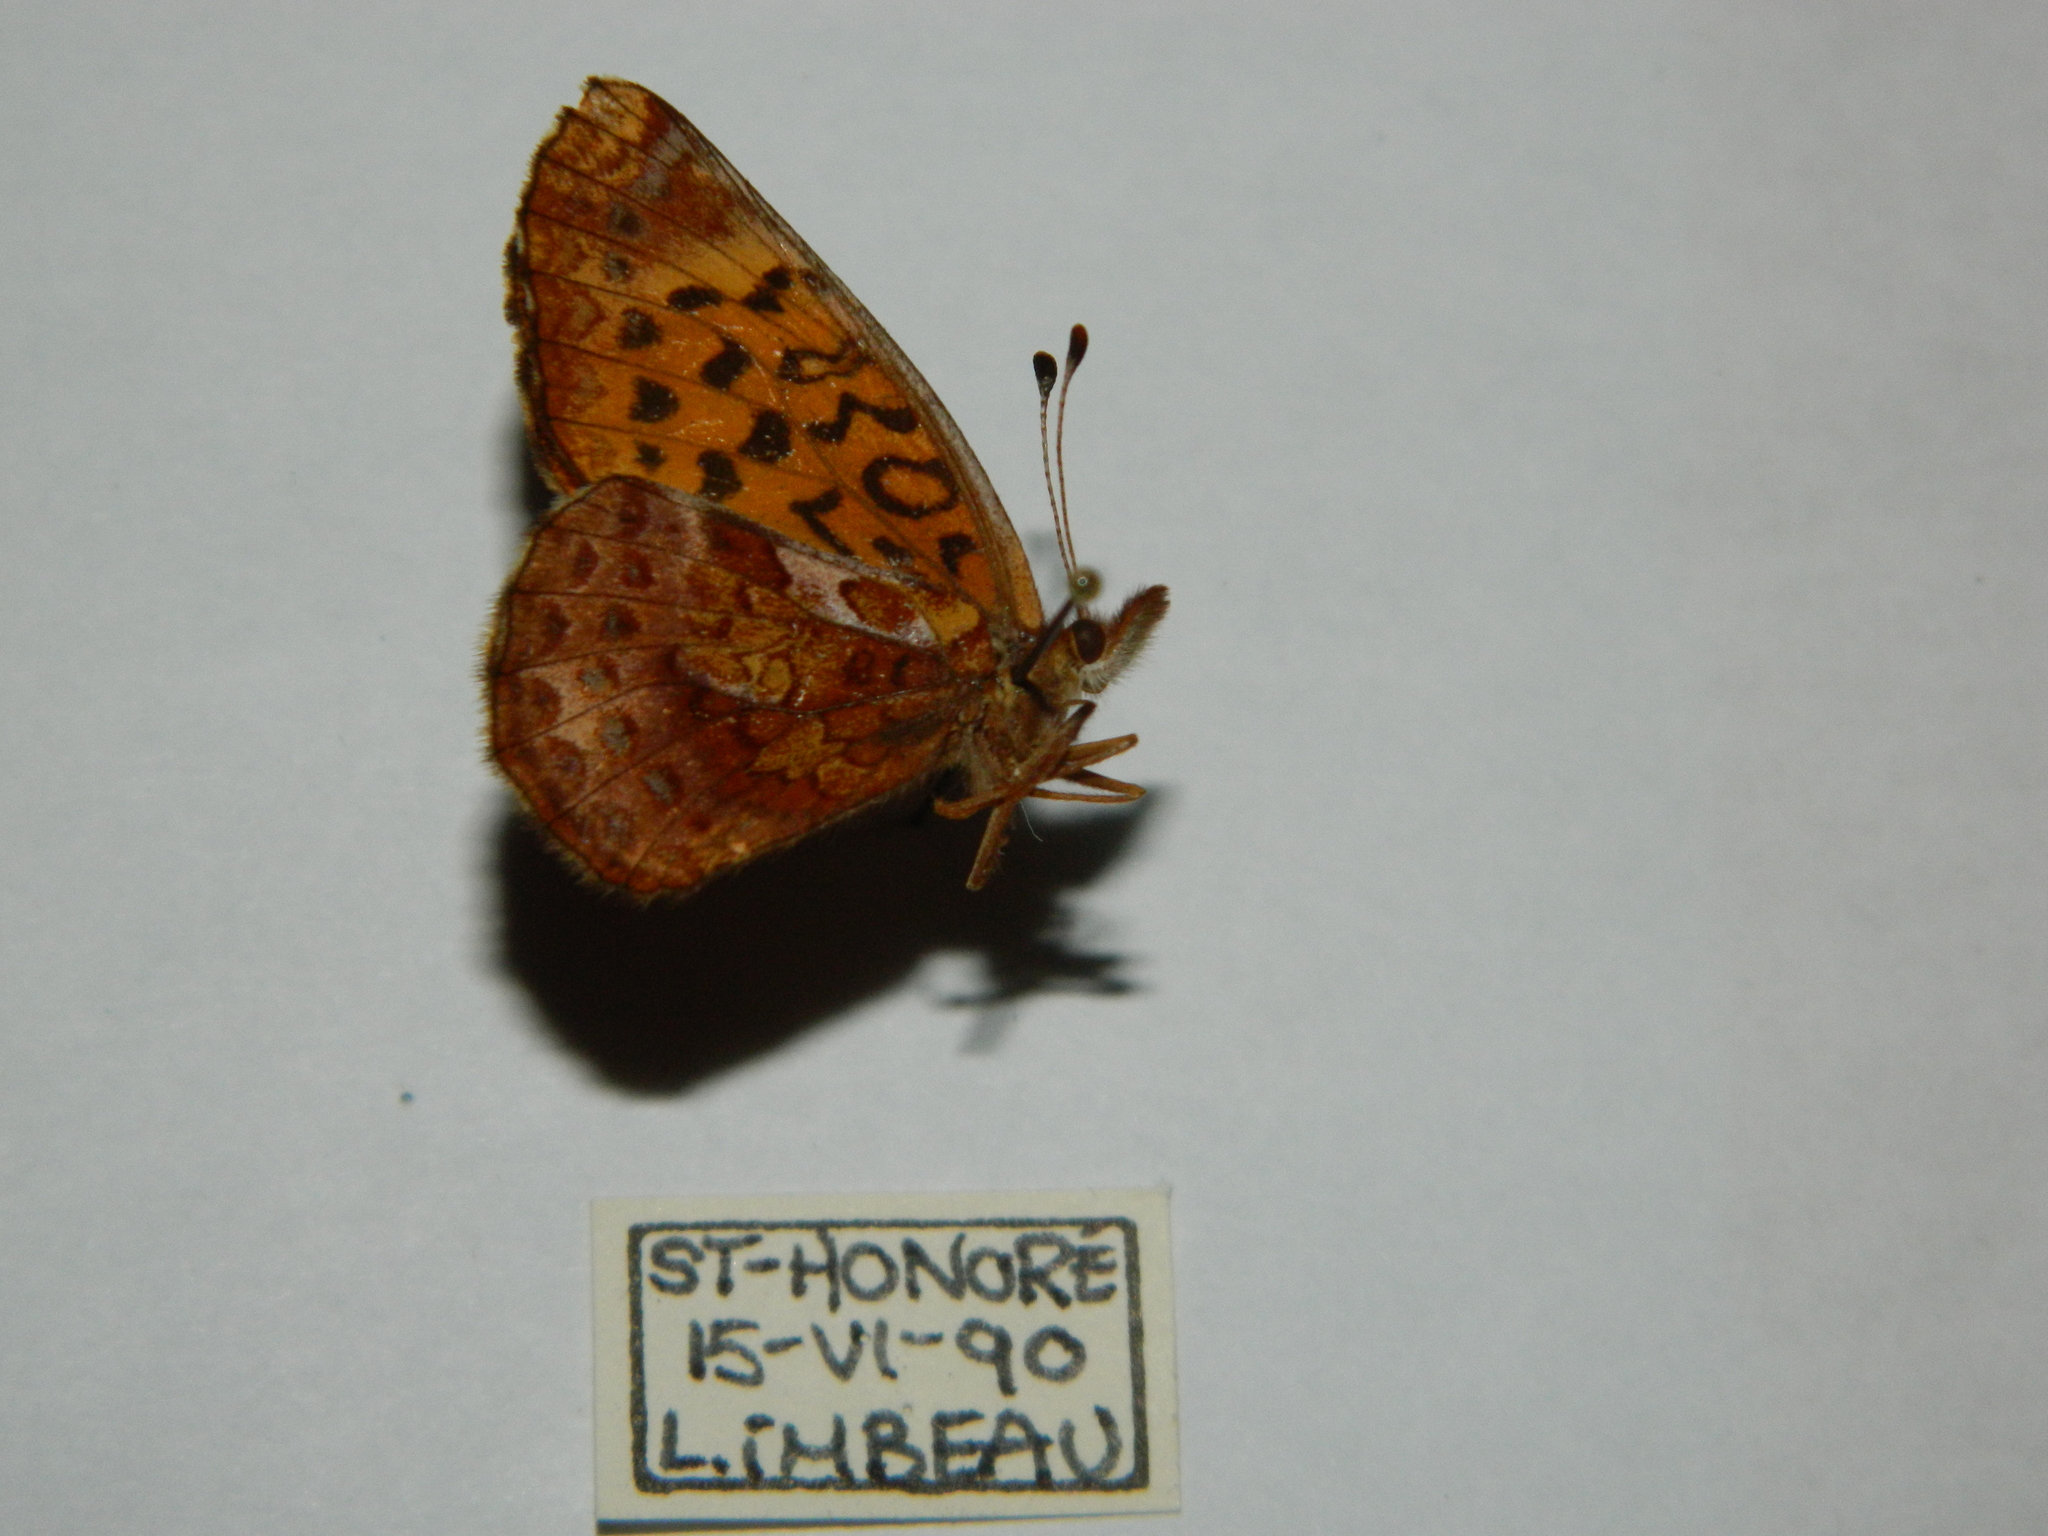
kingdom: Animalia
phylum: Arthropoda
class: Insecta
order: Lepidoptera
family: Nymphalidae
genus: Clossiana
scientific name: Clossiana toddi
